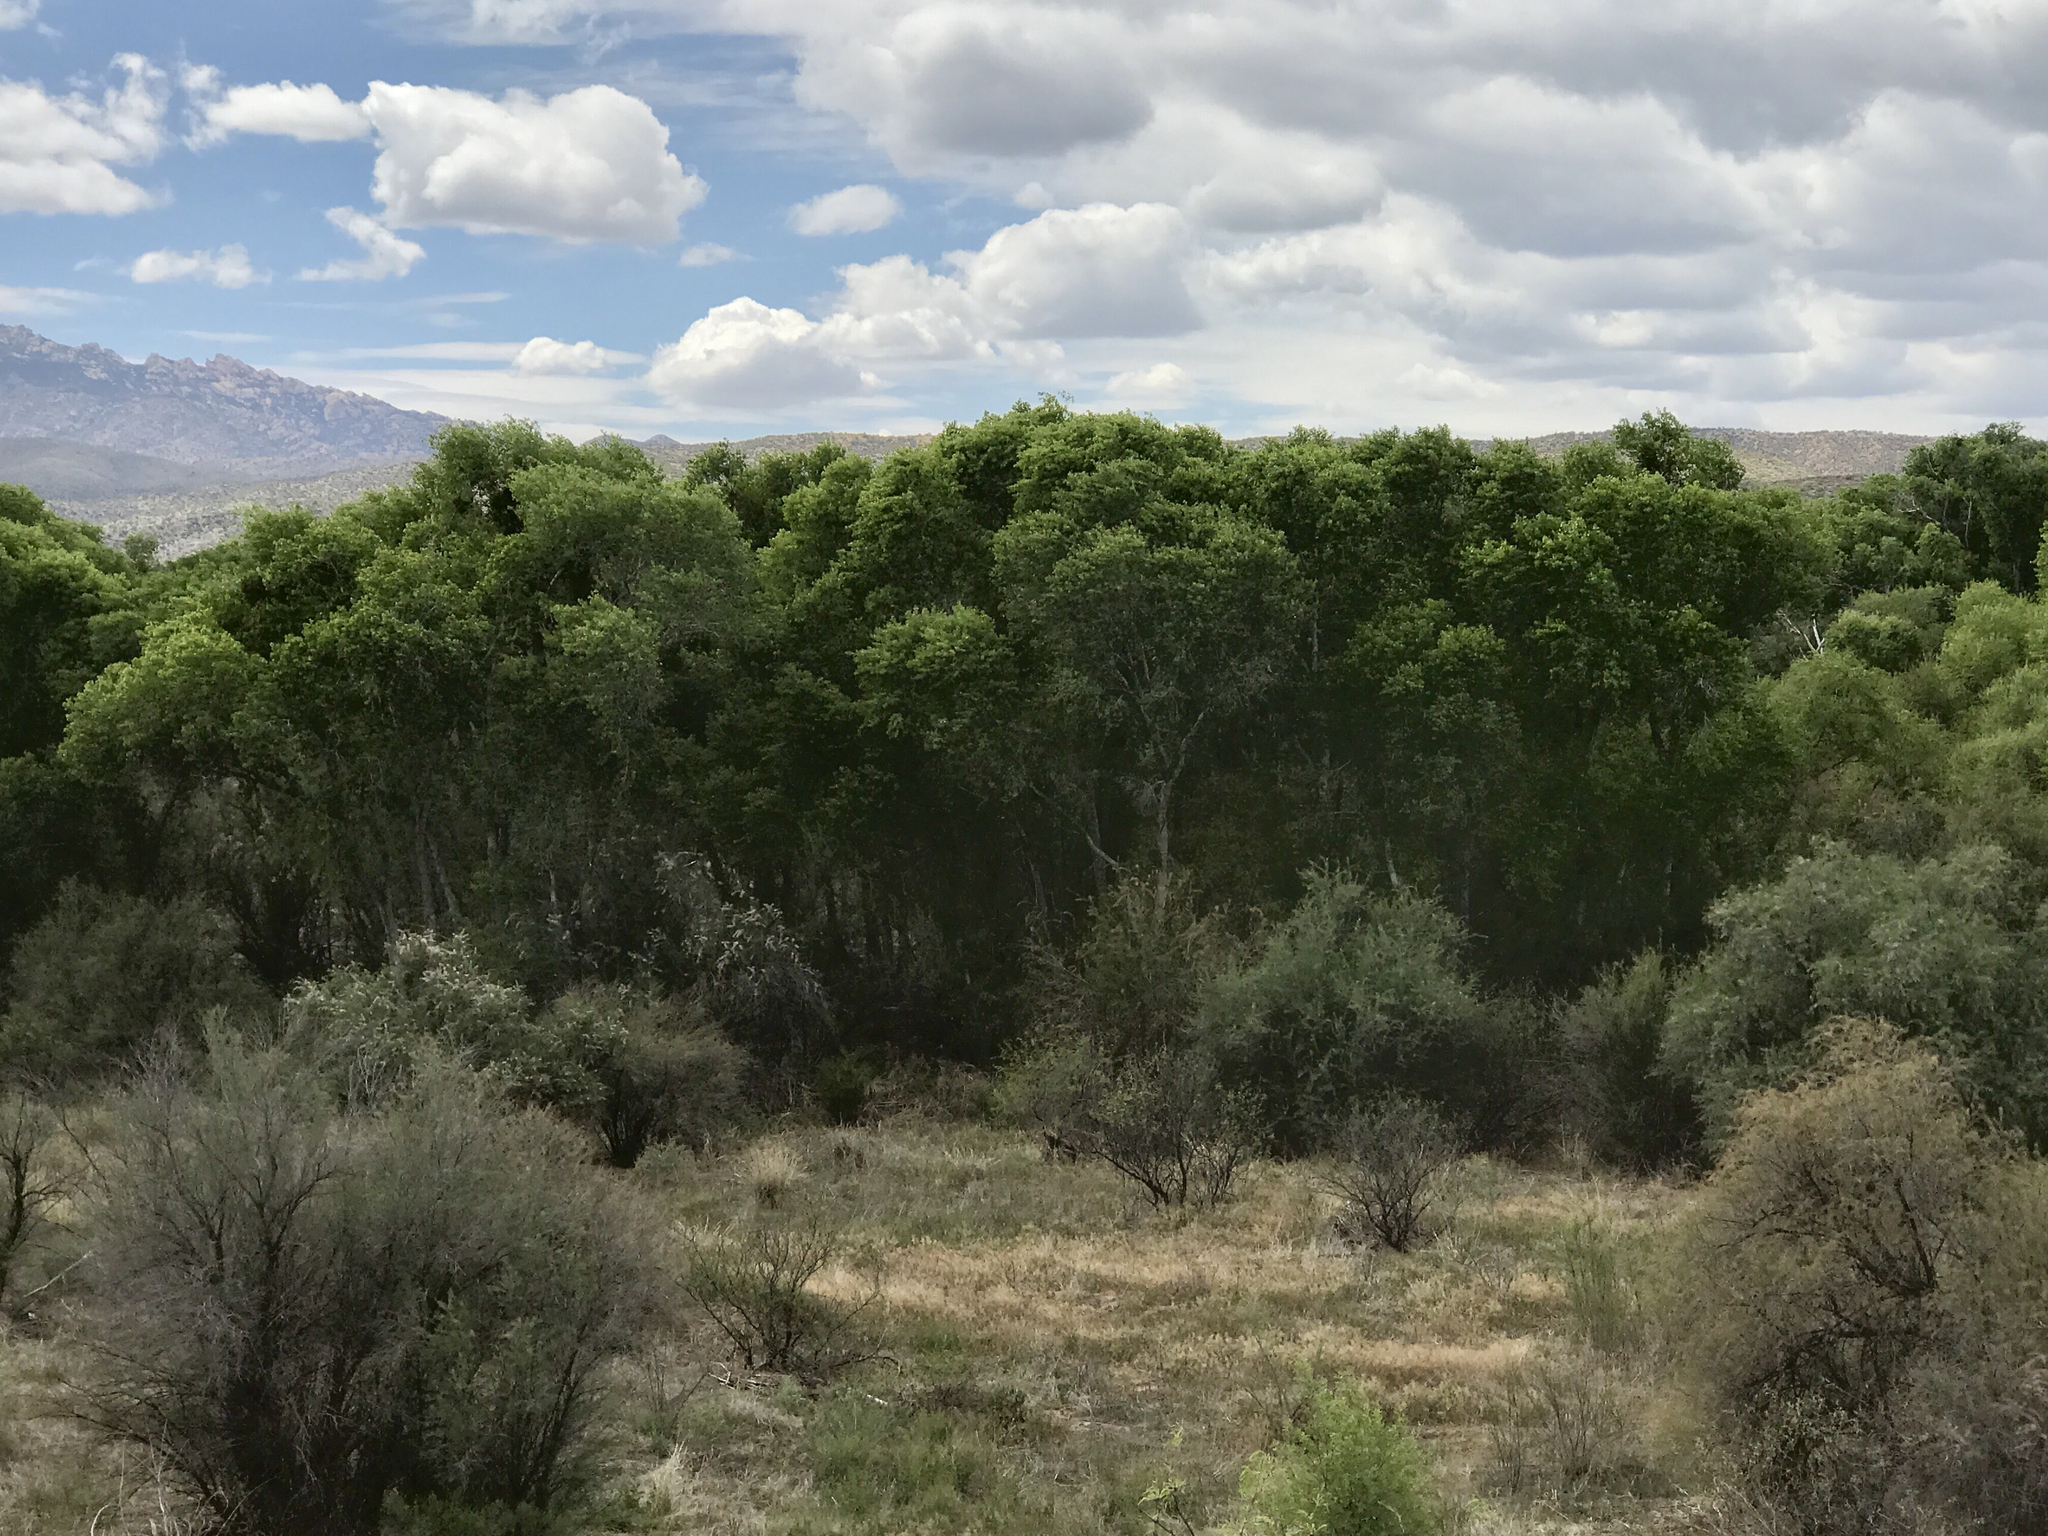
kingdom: Plantae
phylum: Tracheophyta
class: Magnoliopsida
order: Malpighiales
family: Salicaceae
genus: Populus
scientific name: Populus fremontii
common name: Fremont's cottonwood
